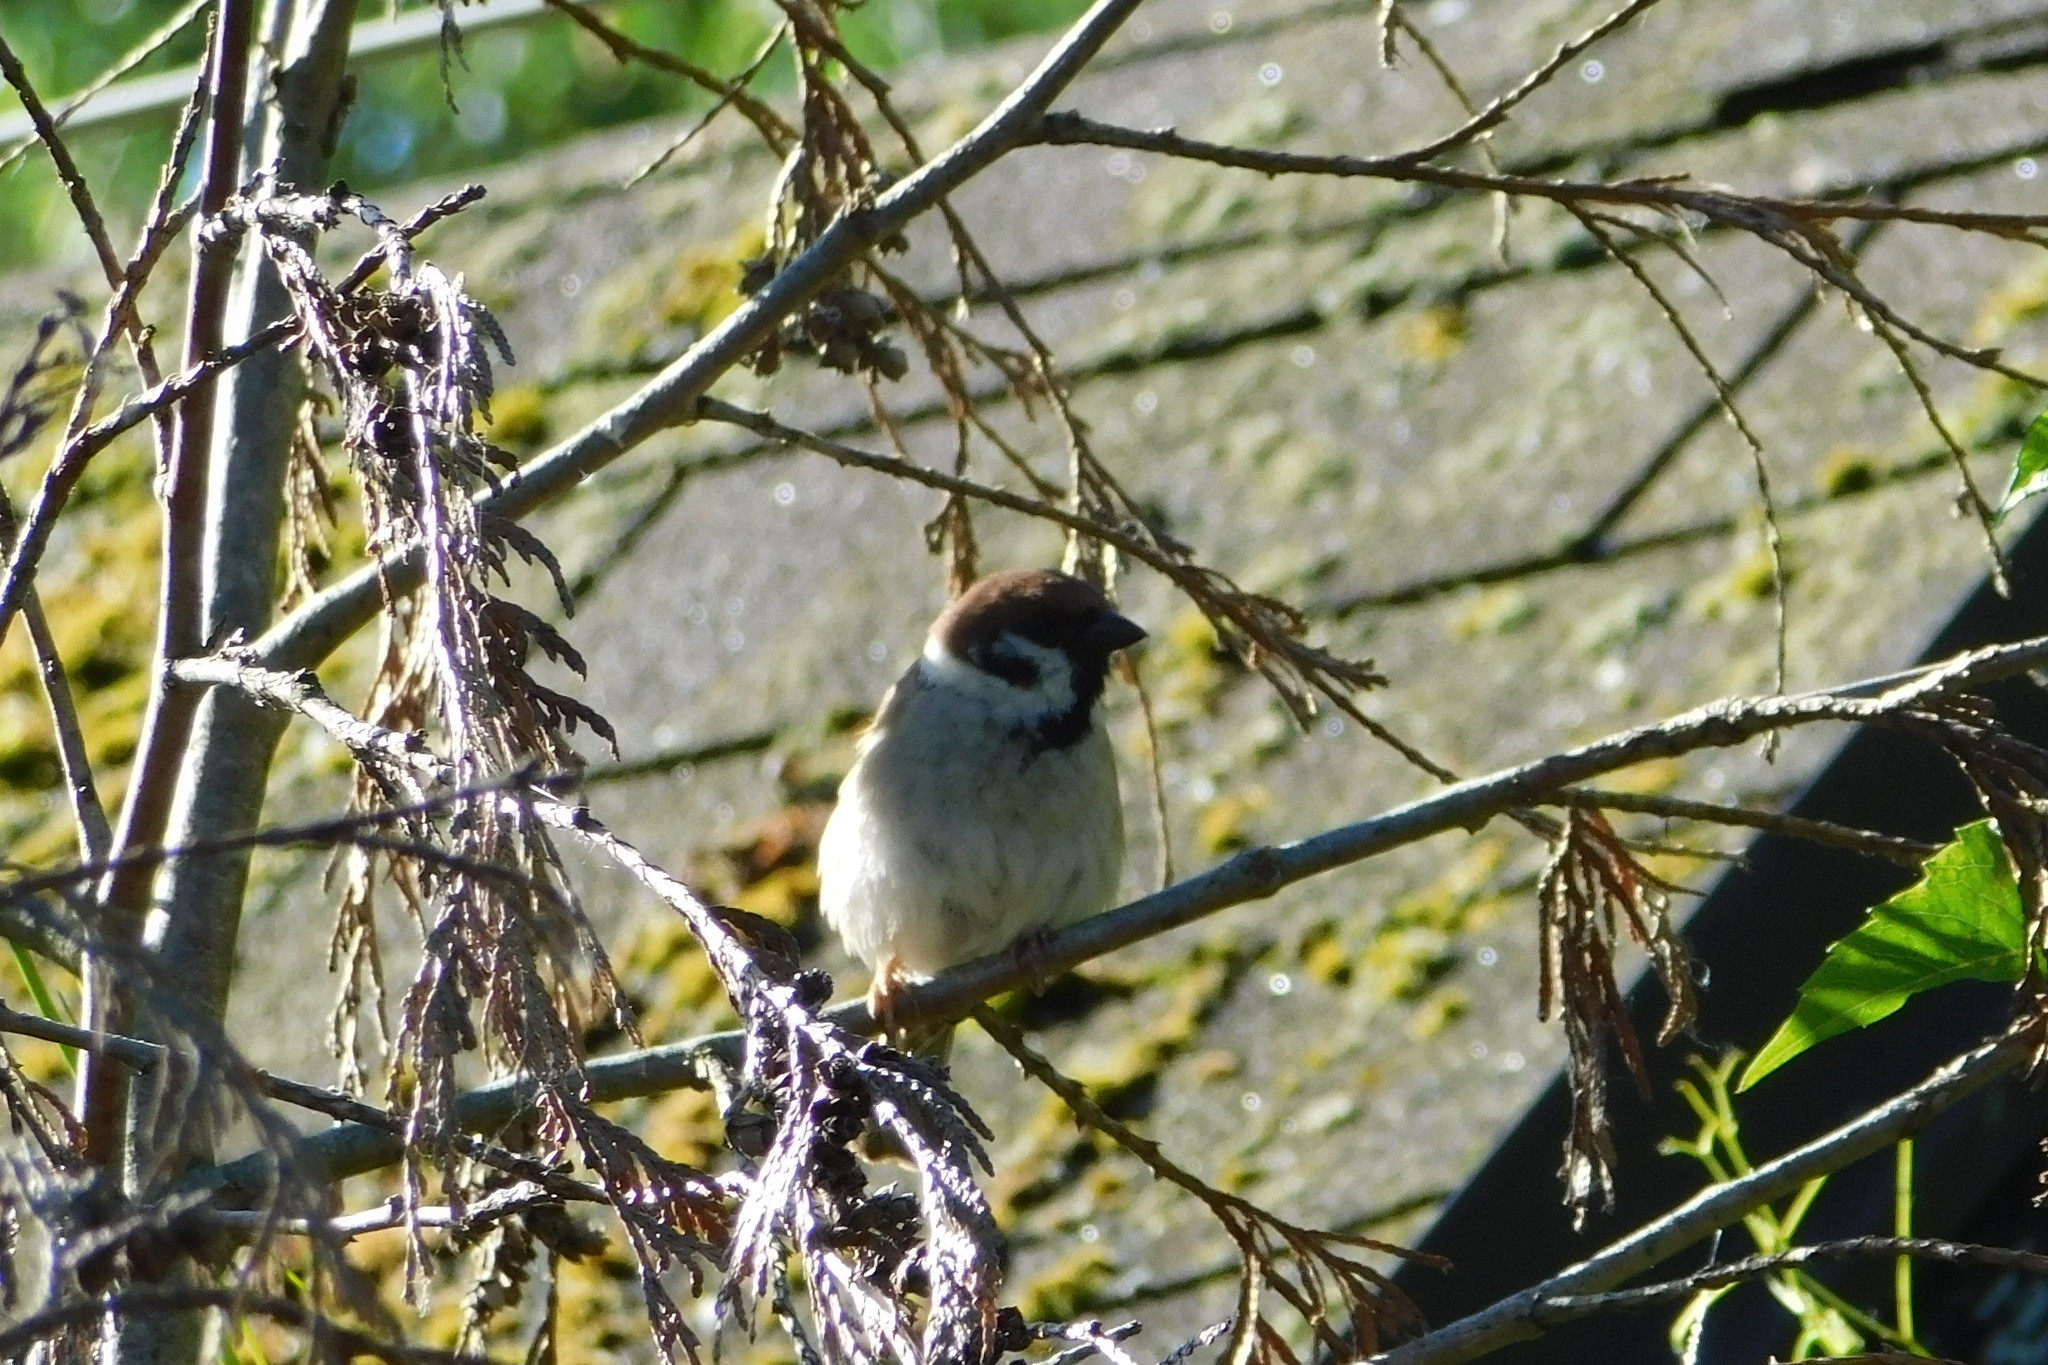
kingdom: Animalia
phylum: Chordata
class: Aves
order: Passeriformes
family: Passeridae
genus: Passer
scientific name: Passer montanus
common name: Eurasian tree sparrow
